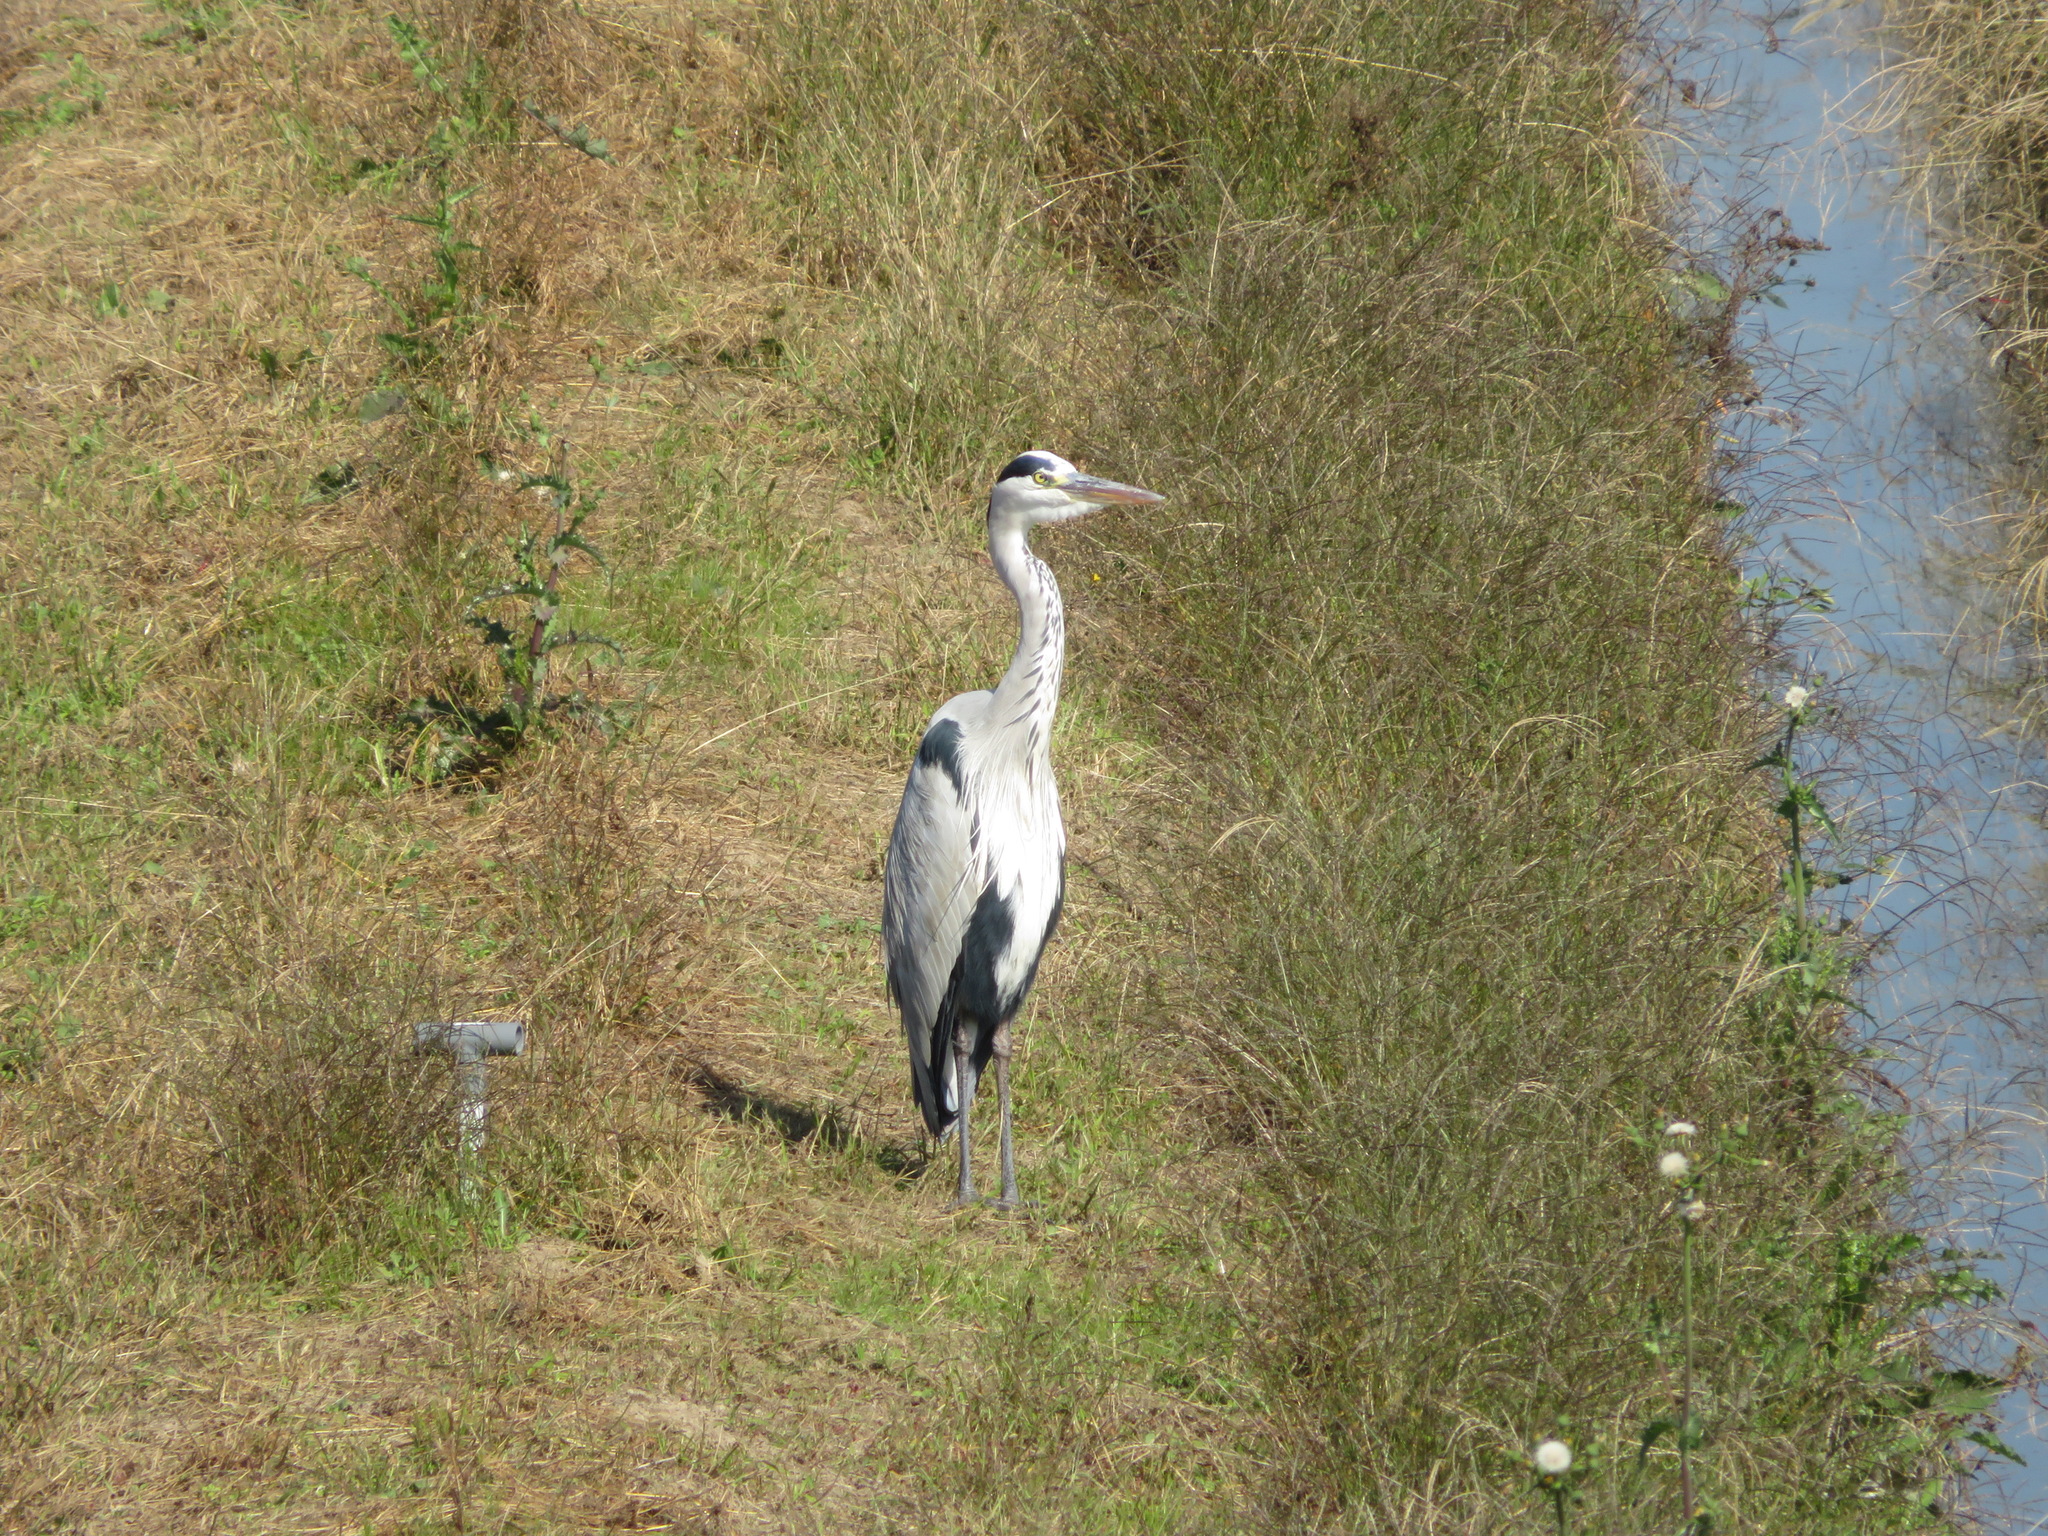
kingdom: Animalia
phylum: Chordata
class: Aves
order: Pelecaniformes
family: Ardeidae
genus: Ardea
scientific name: Ardea cinerea
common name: Grey heron
